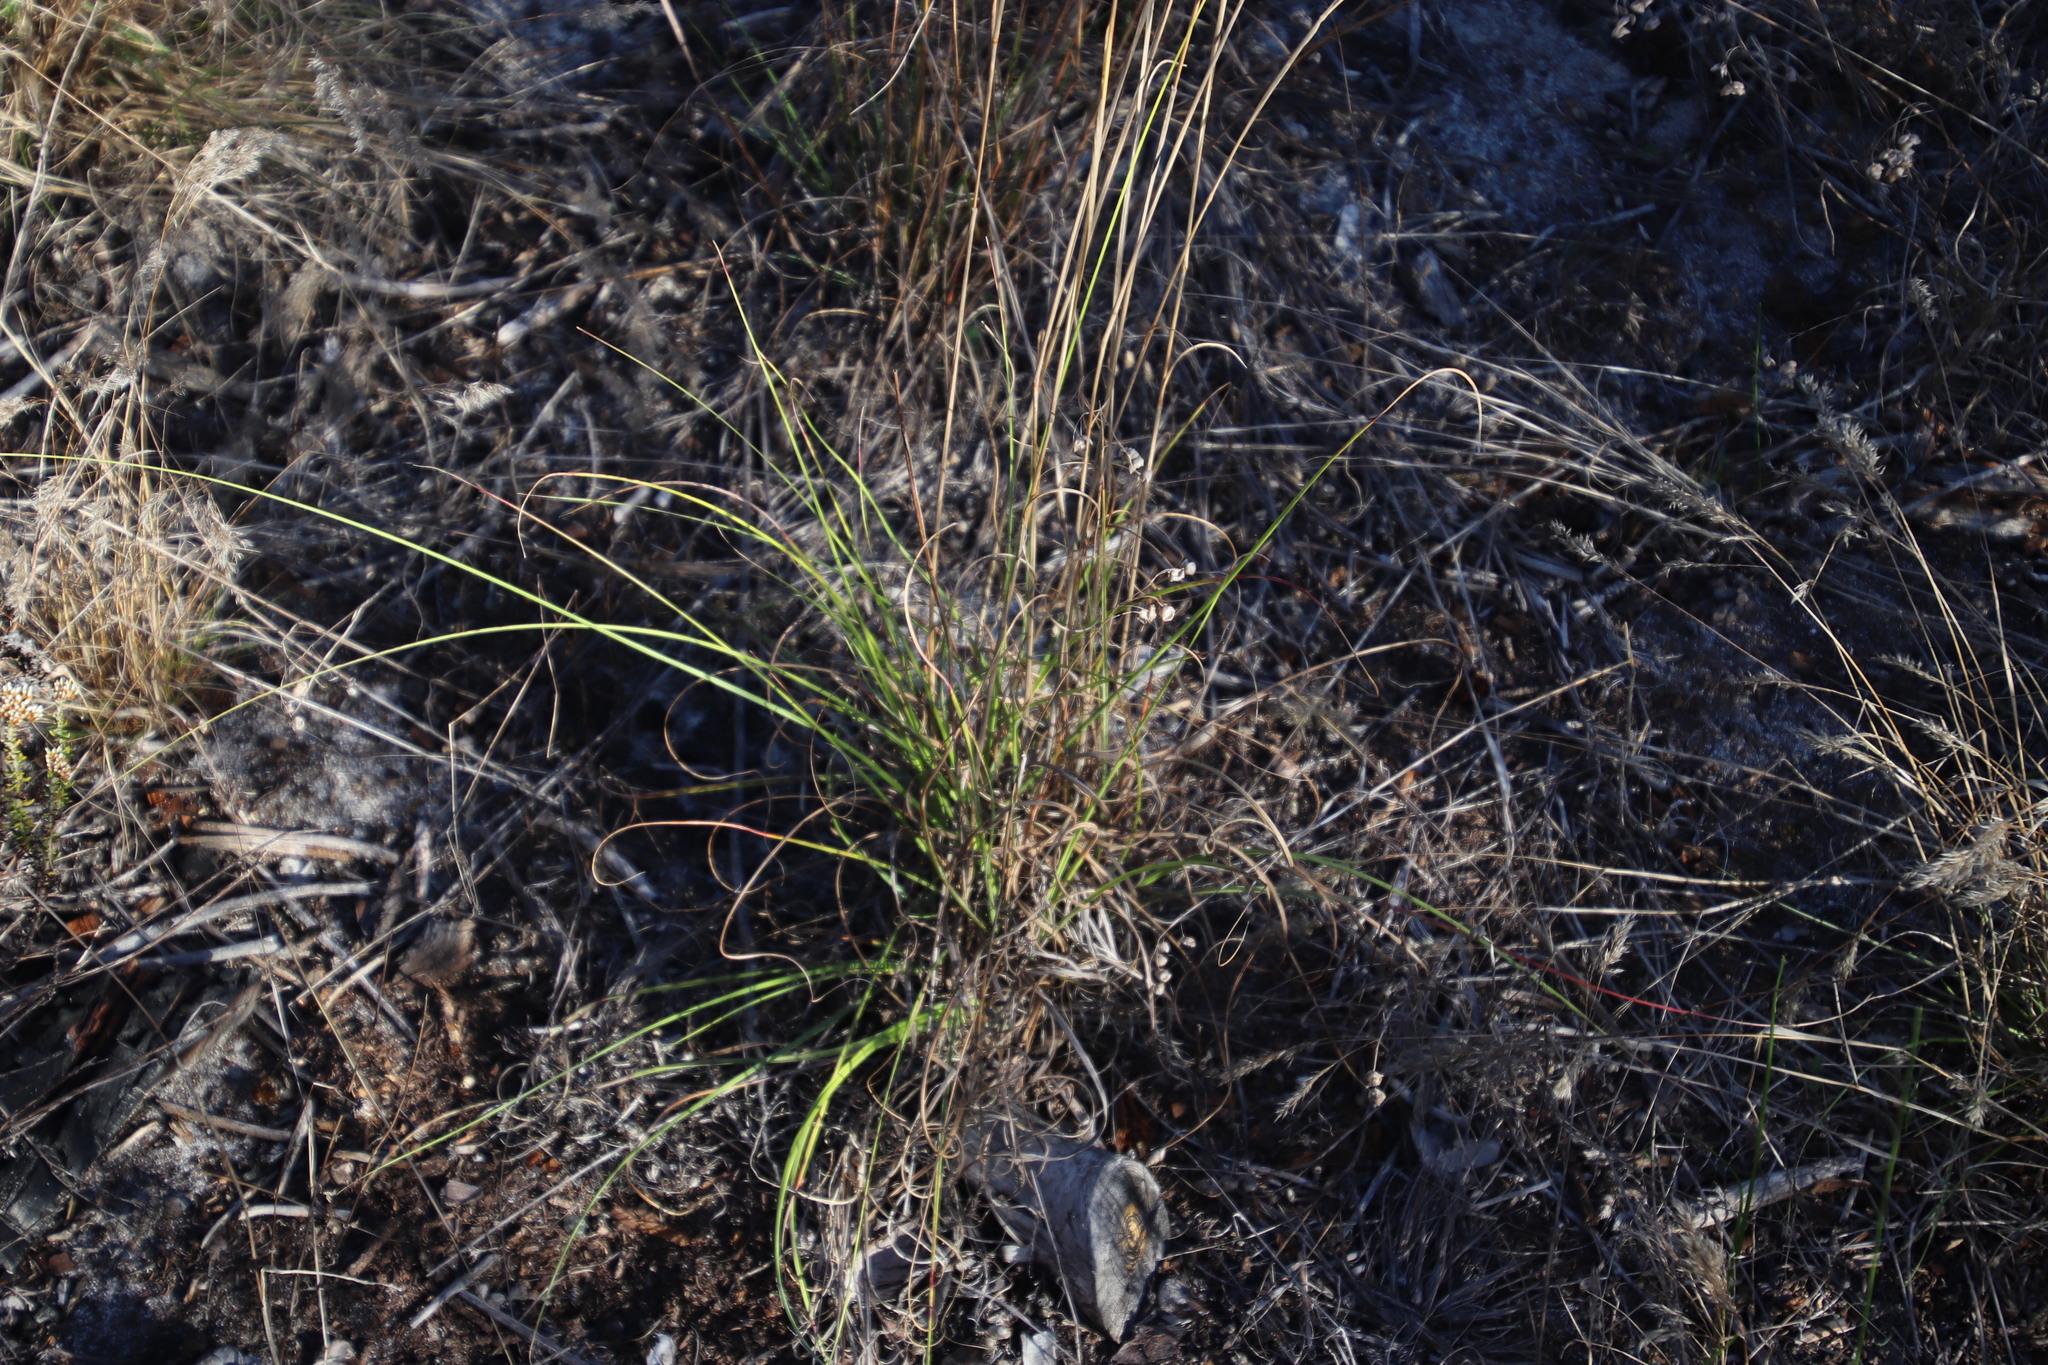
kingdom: Plantae
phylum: Tracheophyta
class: Liliopsida
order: Poales
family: Poaceae
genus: Pseudopentameris
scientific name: Pseudopentameris macrantha
